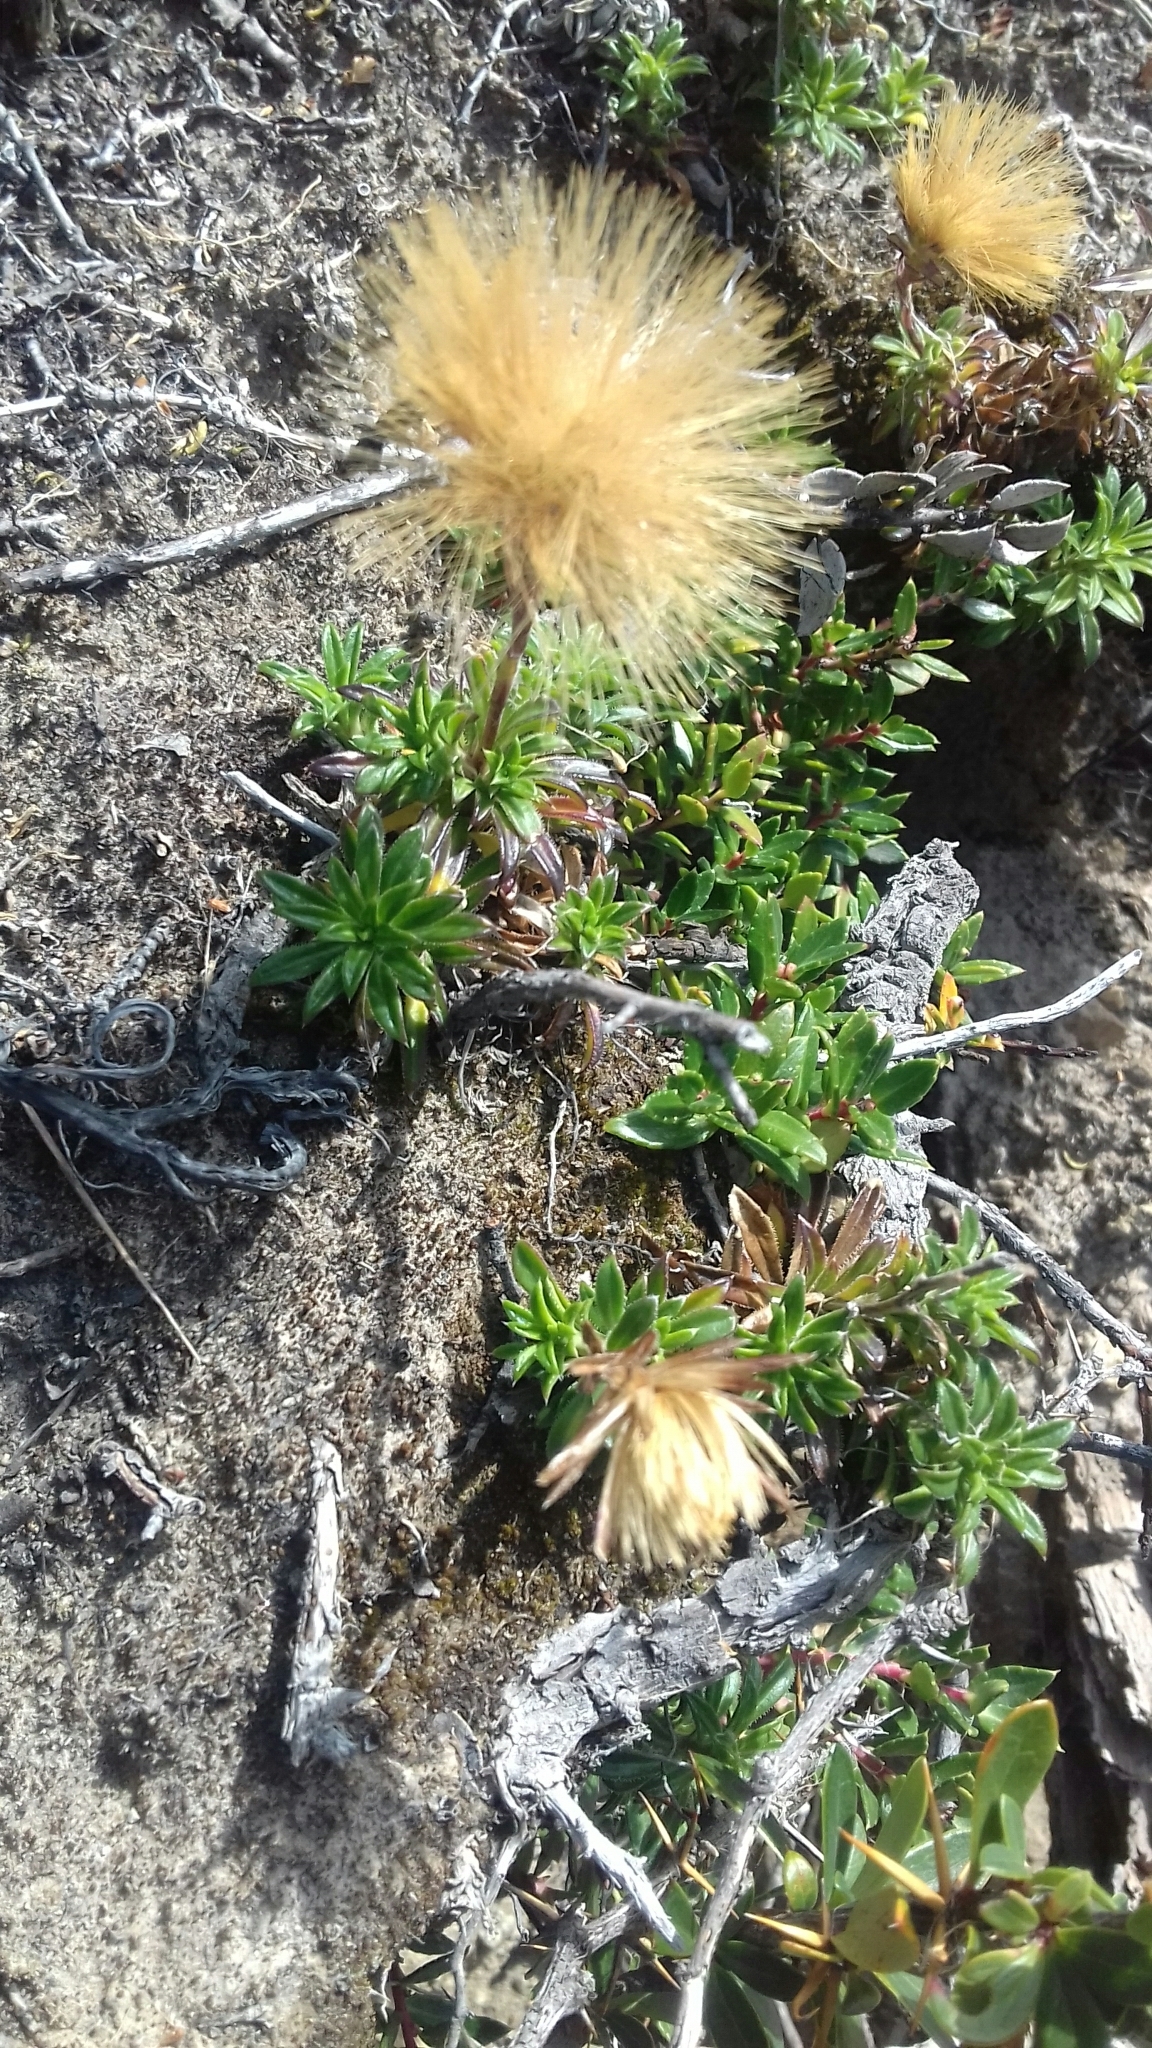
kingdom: Plantae
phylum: Tracheophyta
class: Magnoliopsida
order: Asterales
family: Asteraceae
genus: Perezia
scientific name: Perezia recurvata
